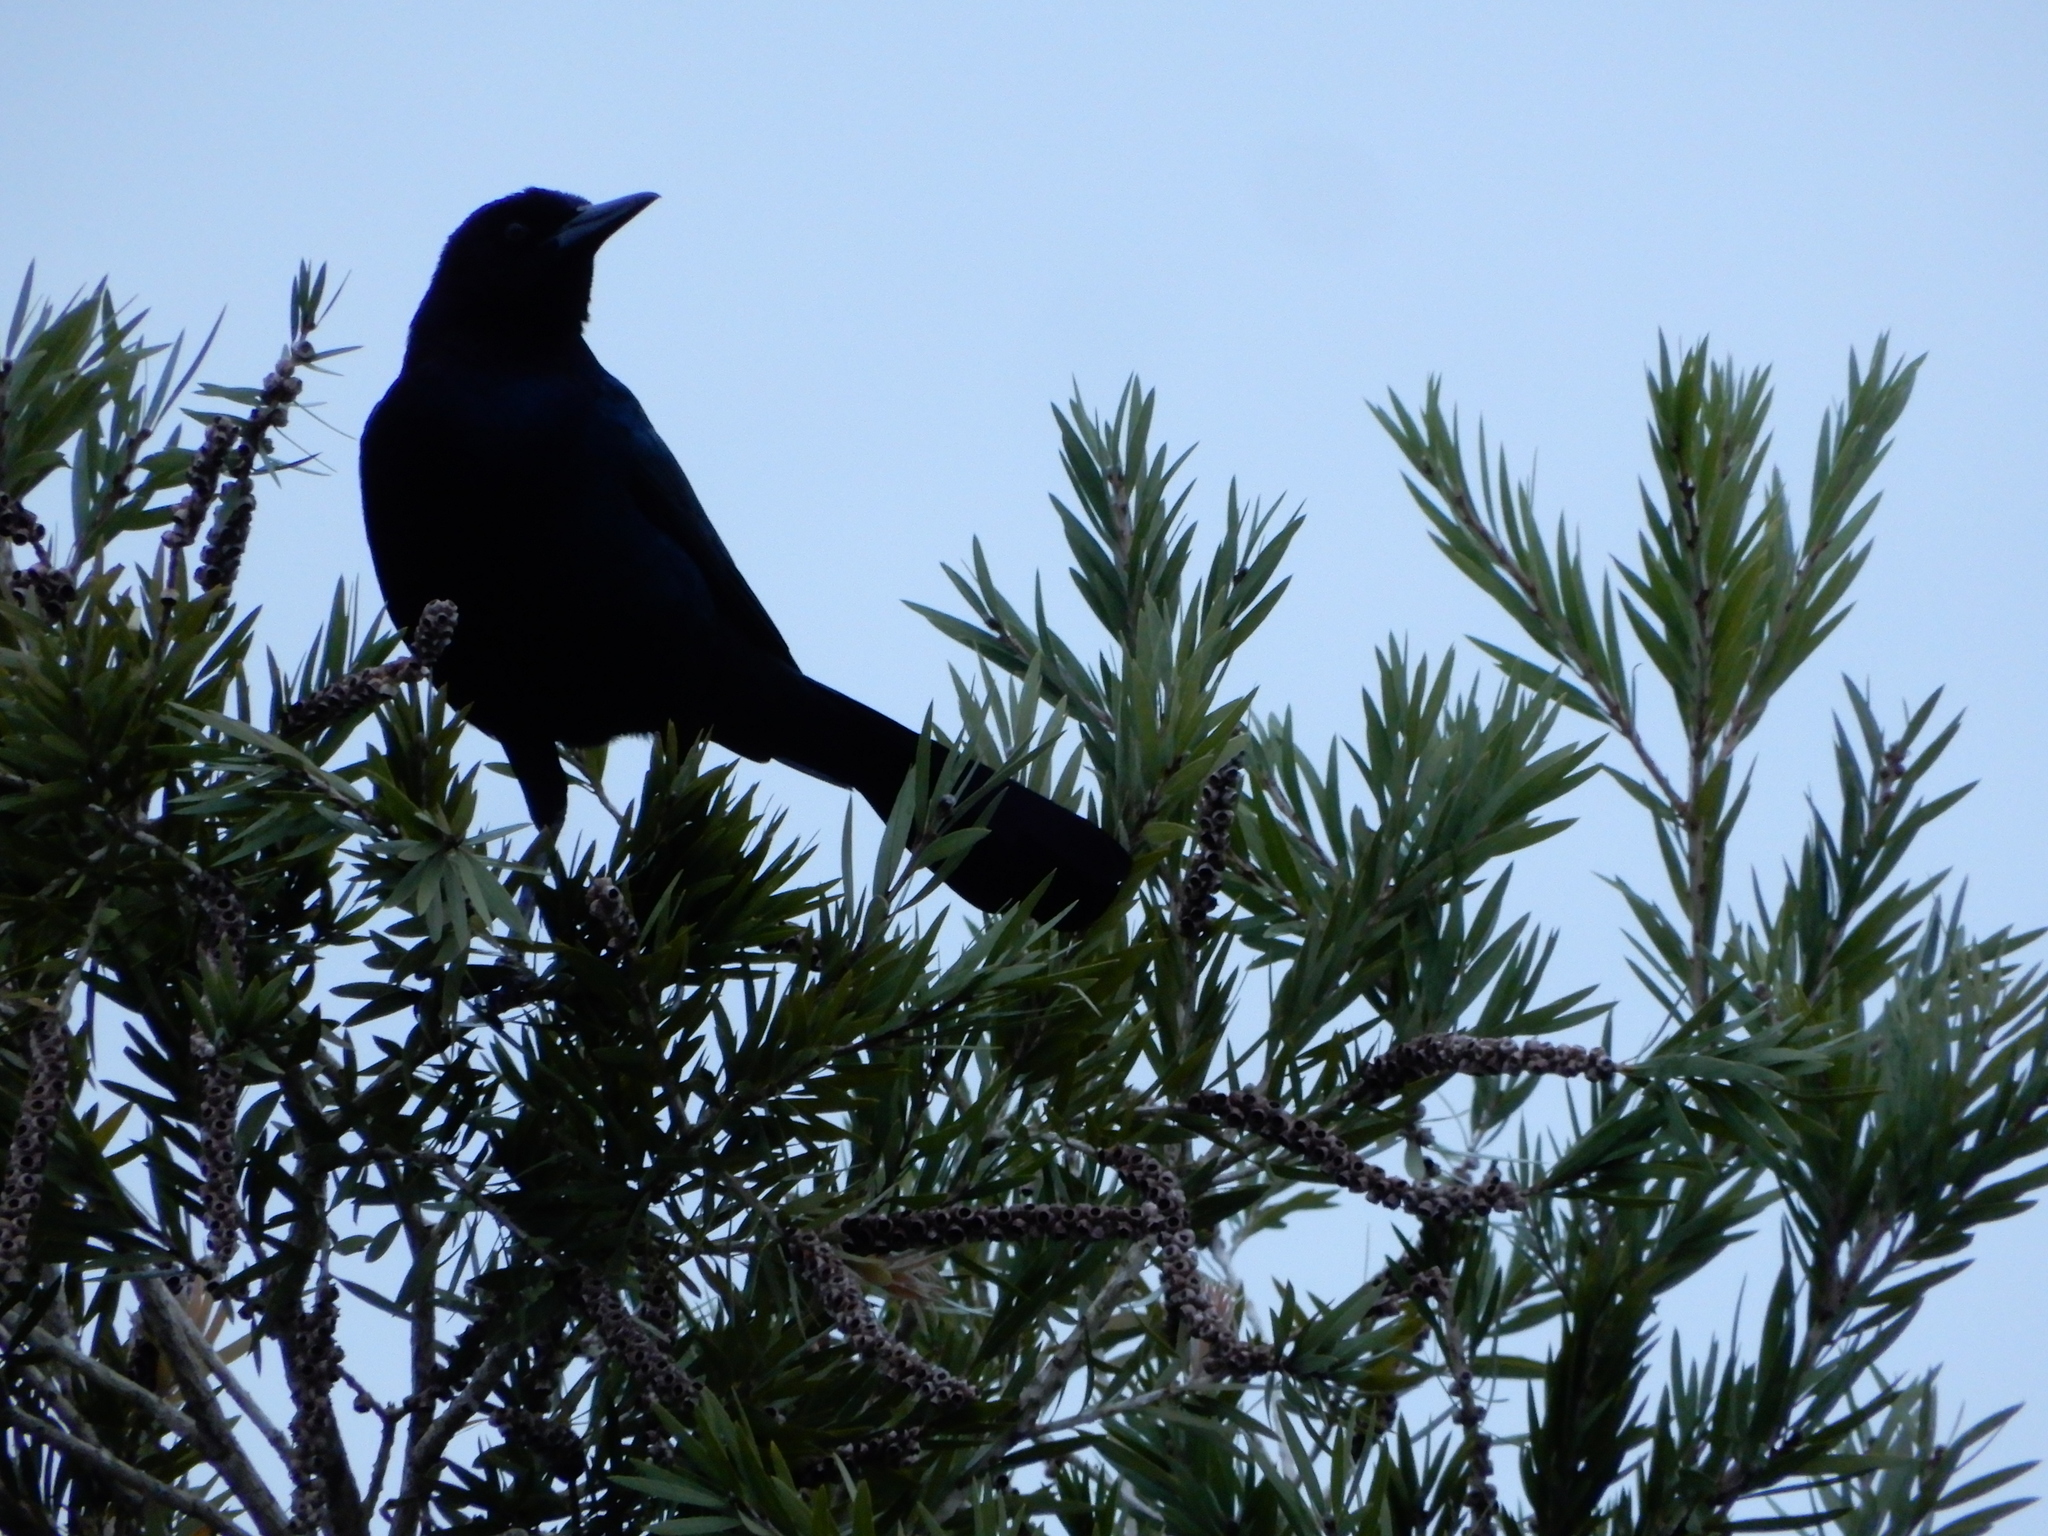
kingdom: Animalia
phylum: Chordata
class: Aves
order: Passeriformes
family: Icteridae
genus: Quiscalus
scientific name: Quiscalus major
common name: Boat-tailed grackle
